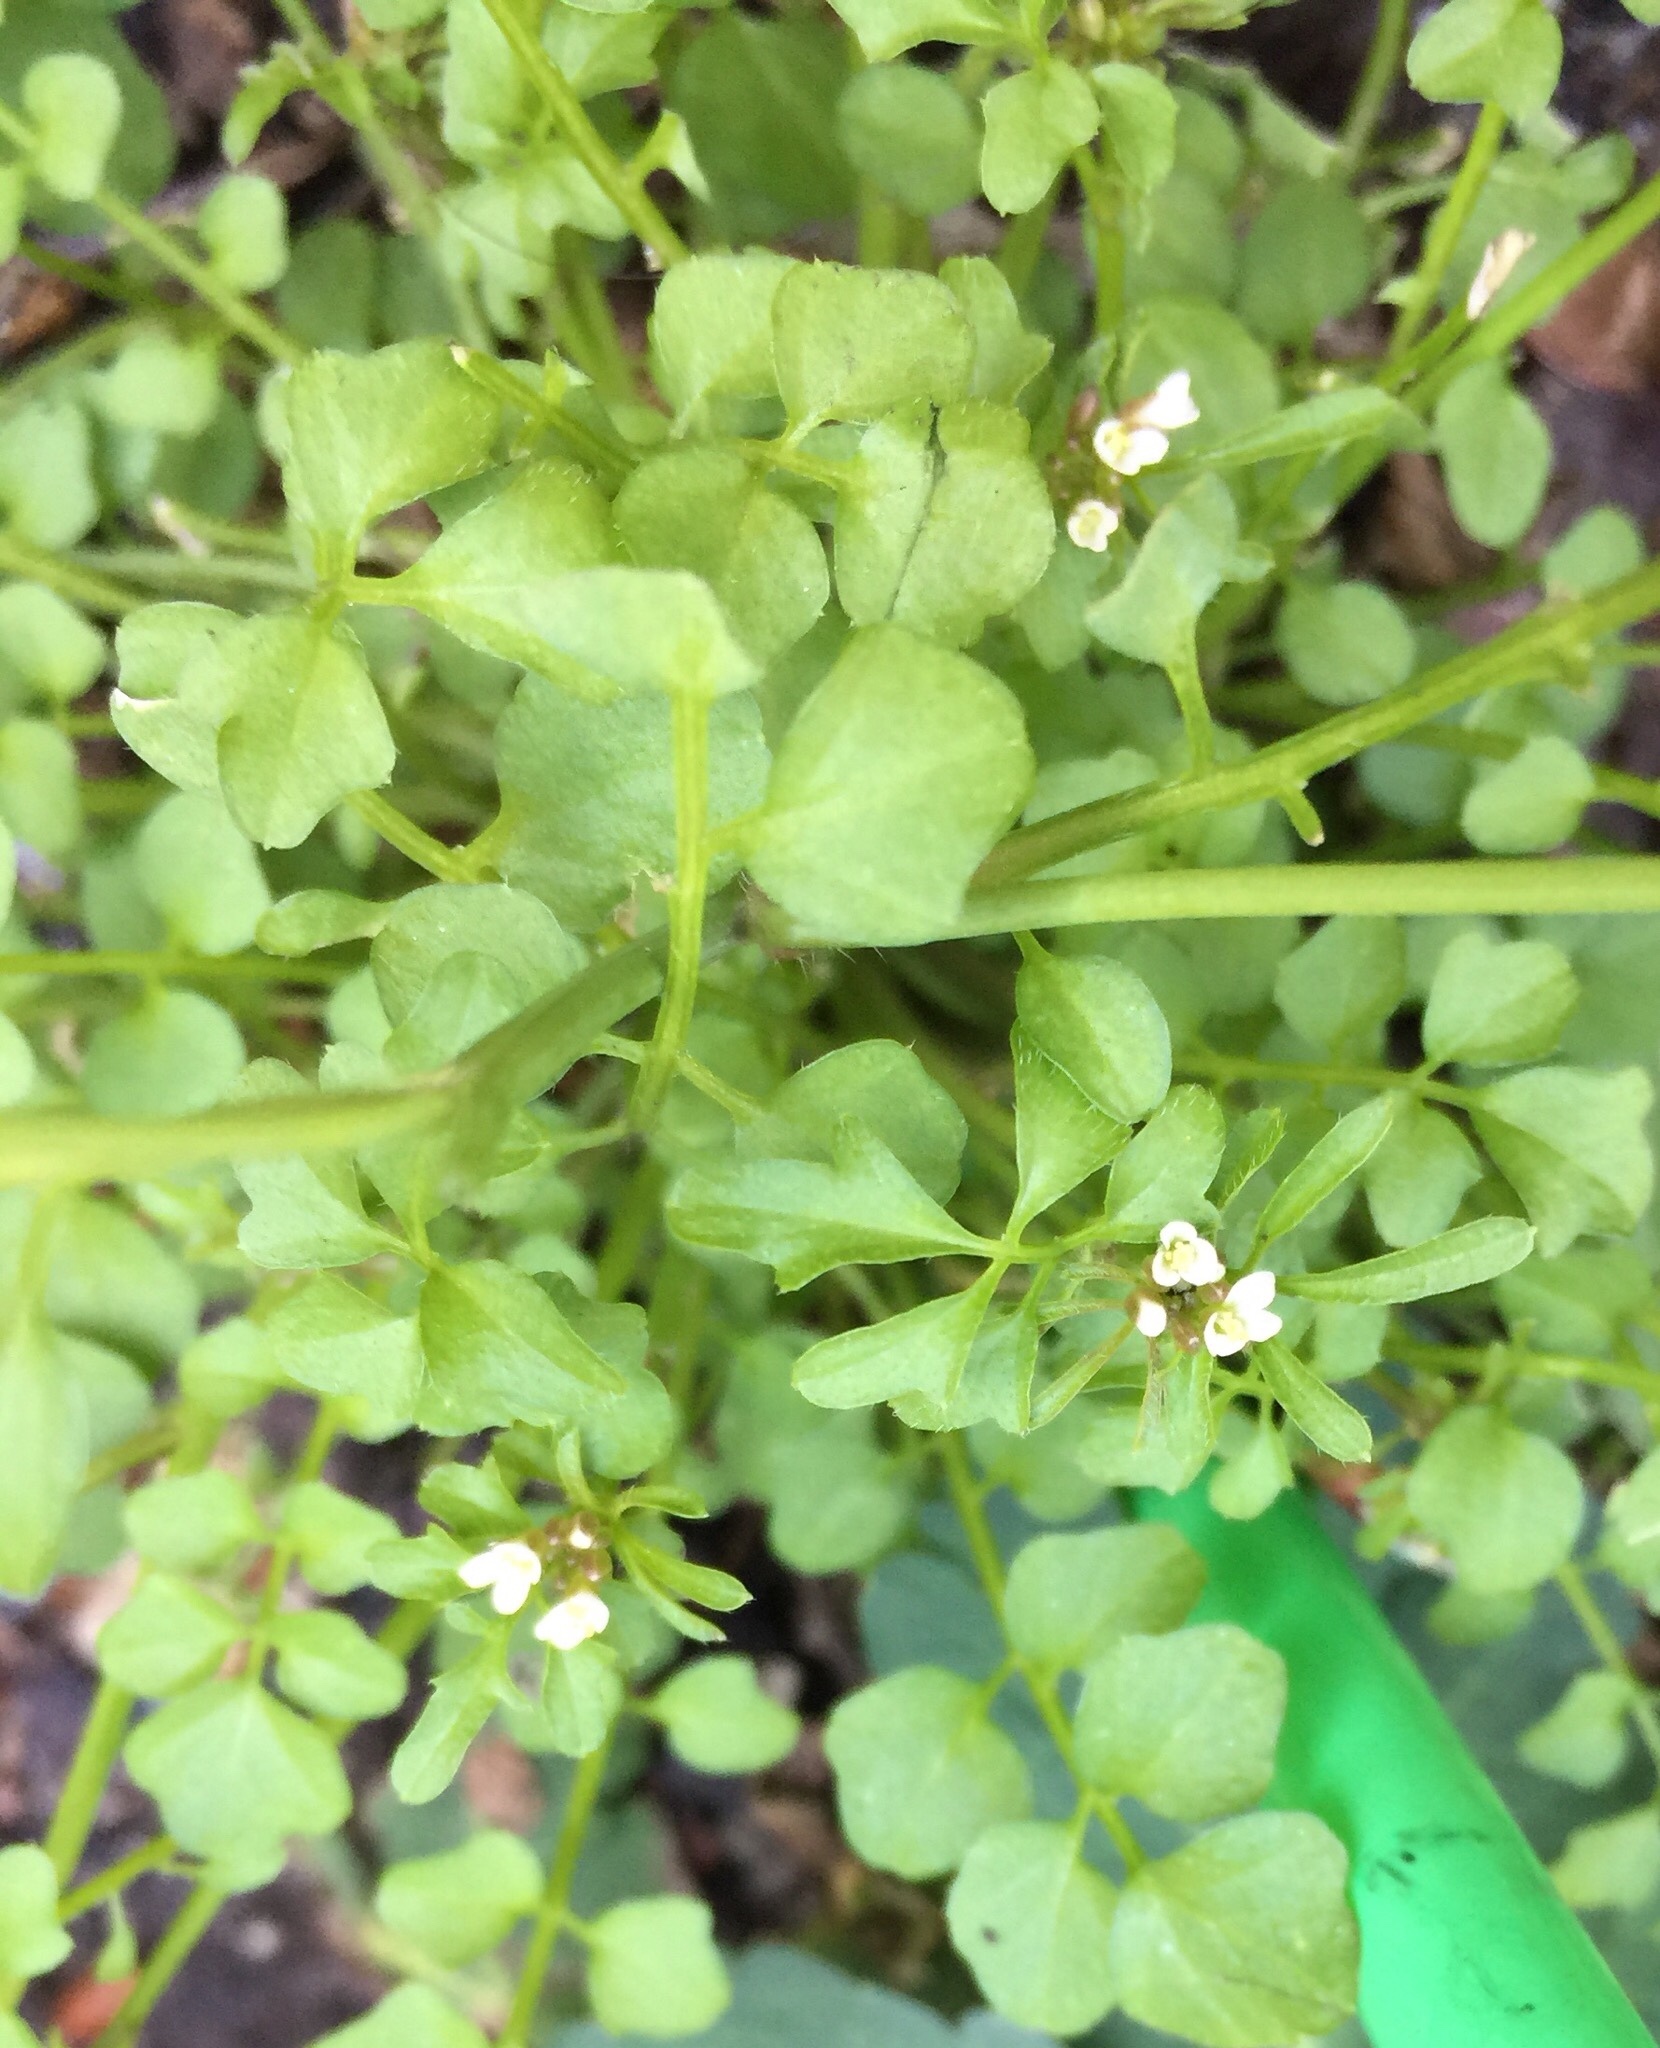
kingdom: Plantae
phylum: Tracheophyta
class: Magnoliopsida
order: Brassicales
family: Brassicaceae
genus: Cardamine
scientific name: Cardamine hirsuta
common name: Hairy bittercress
